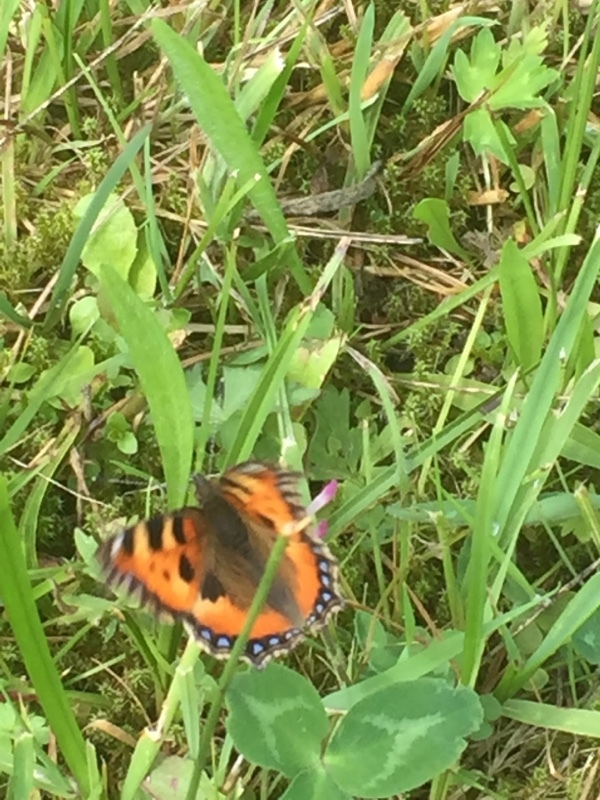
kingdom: Animalia
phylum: Arthropoda
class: Insecta
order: Lepidoptera
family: Nymphalidae
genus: Aglais
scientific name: Aglais urticae
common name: Small tortoiseshell
